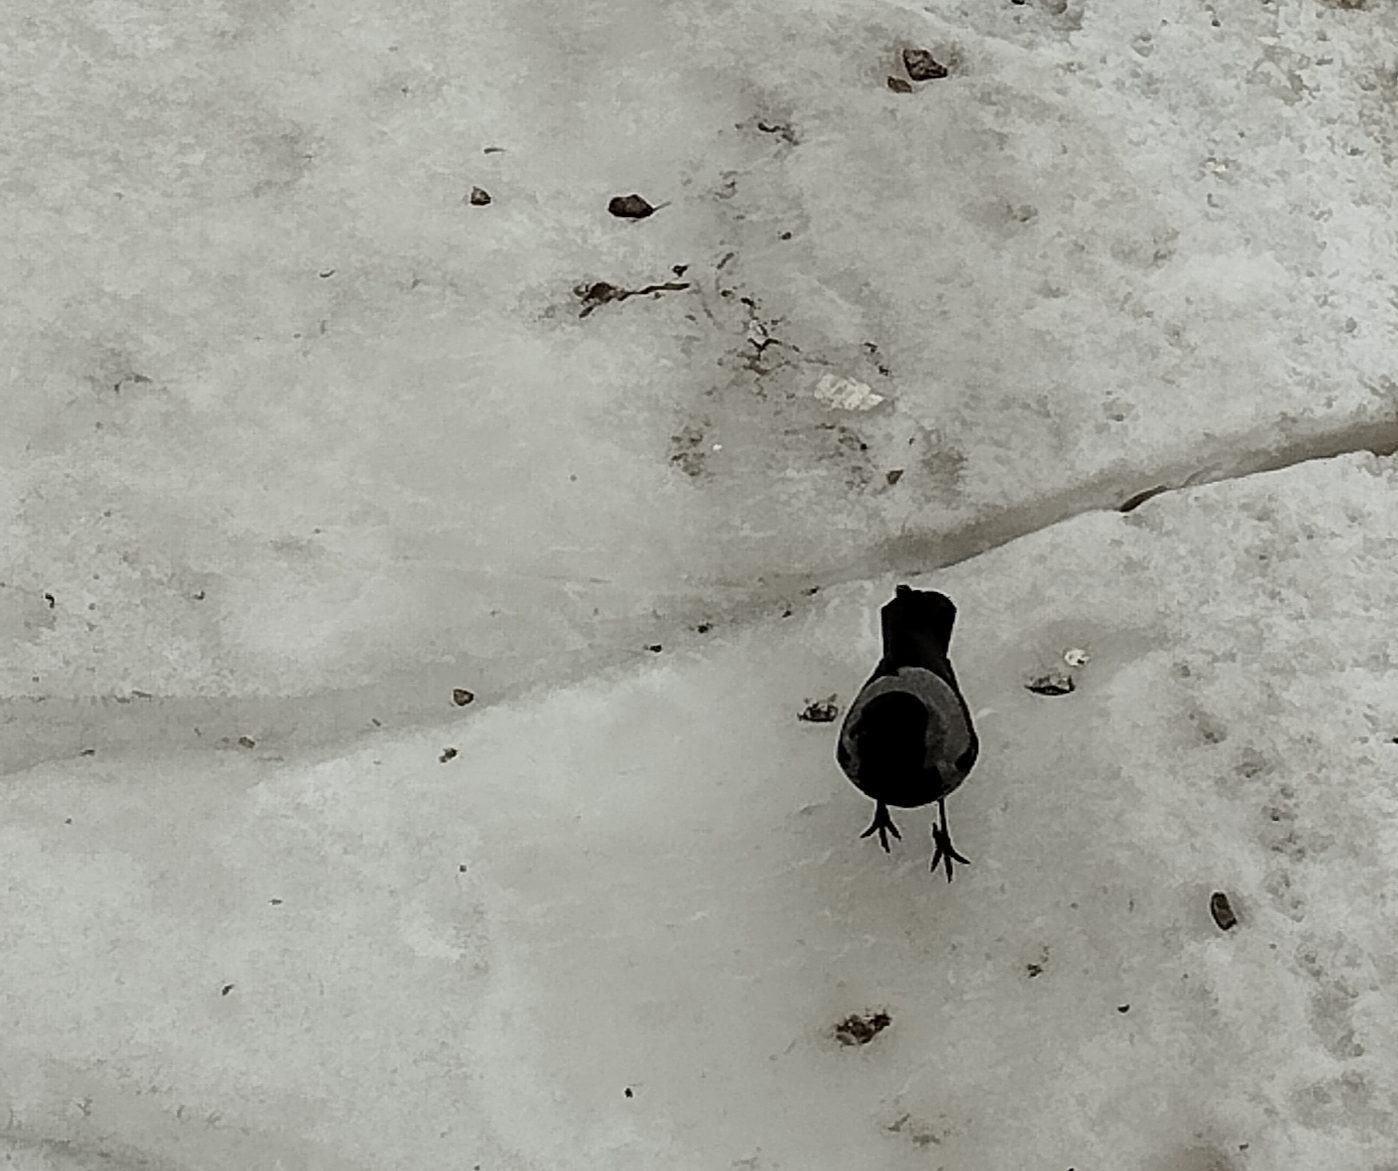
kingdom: Animalia
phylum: Chordata
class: Aves
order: Passeriformes
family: Corvidae
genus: Corvus
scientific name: Corvus cornix
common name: Hooded crow
